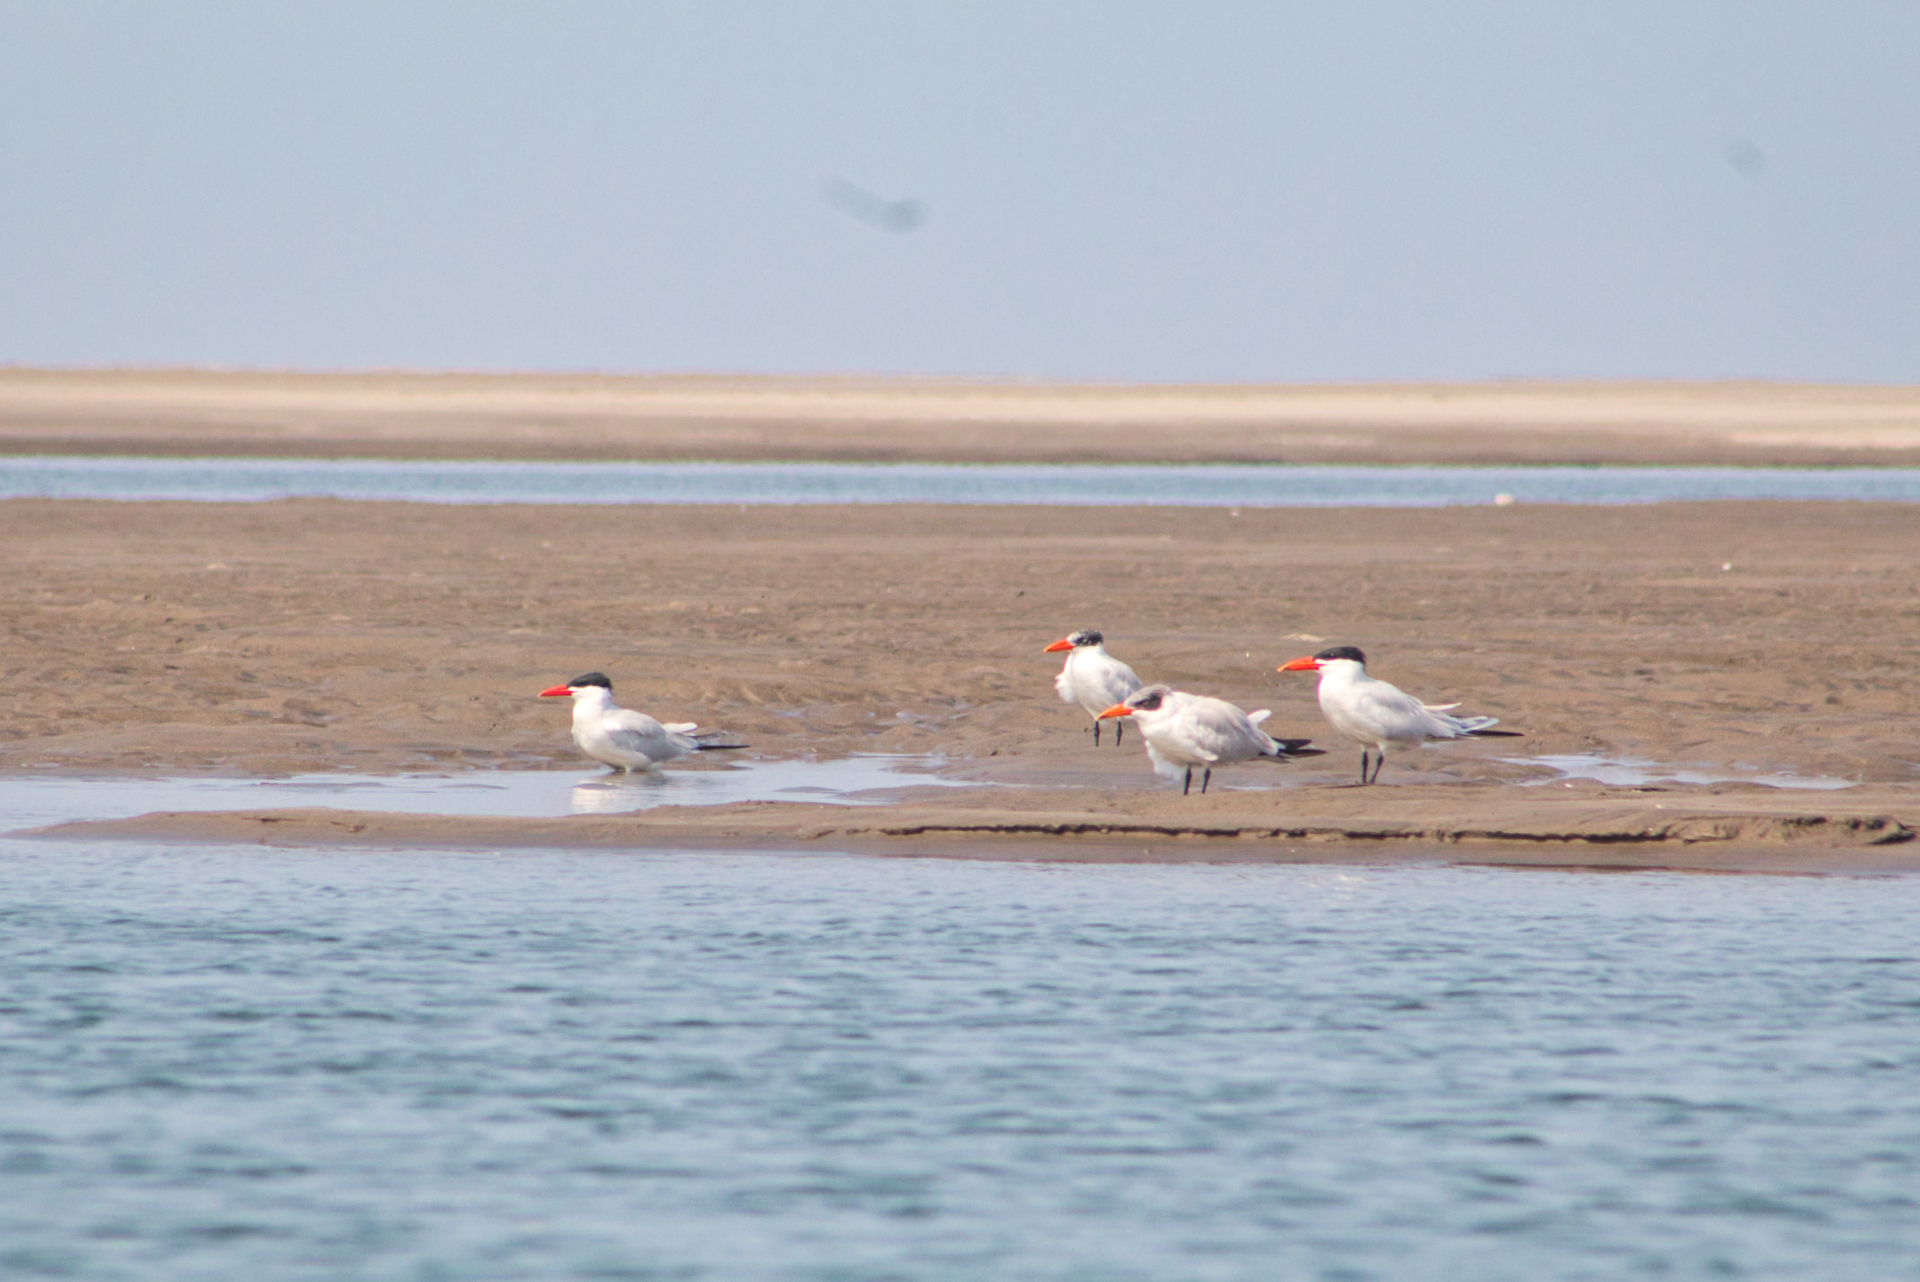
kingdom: Animalia
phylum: Chordata
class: Aves
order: Charadriiformes
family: Laridae
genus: Hydroprogne
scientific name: Hydroprogne caspia
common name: Caspian tern
